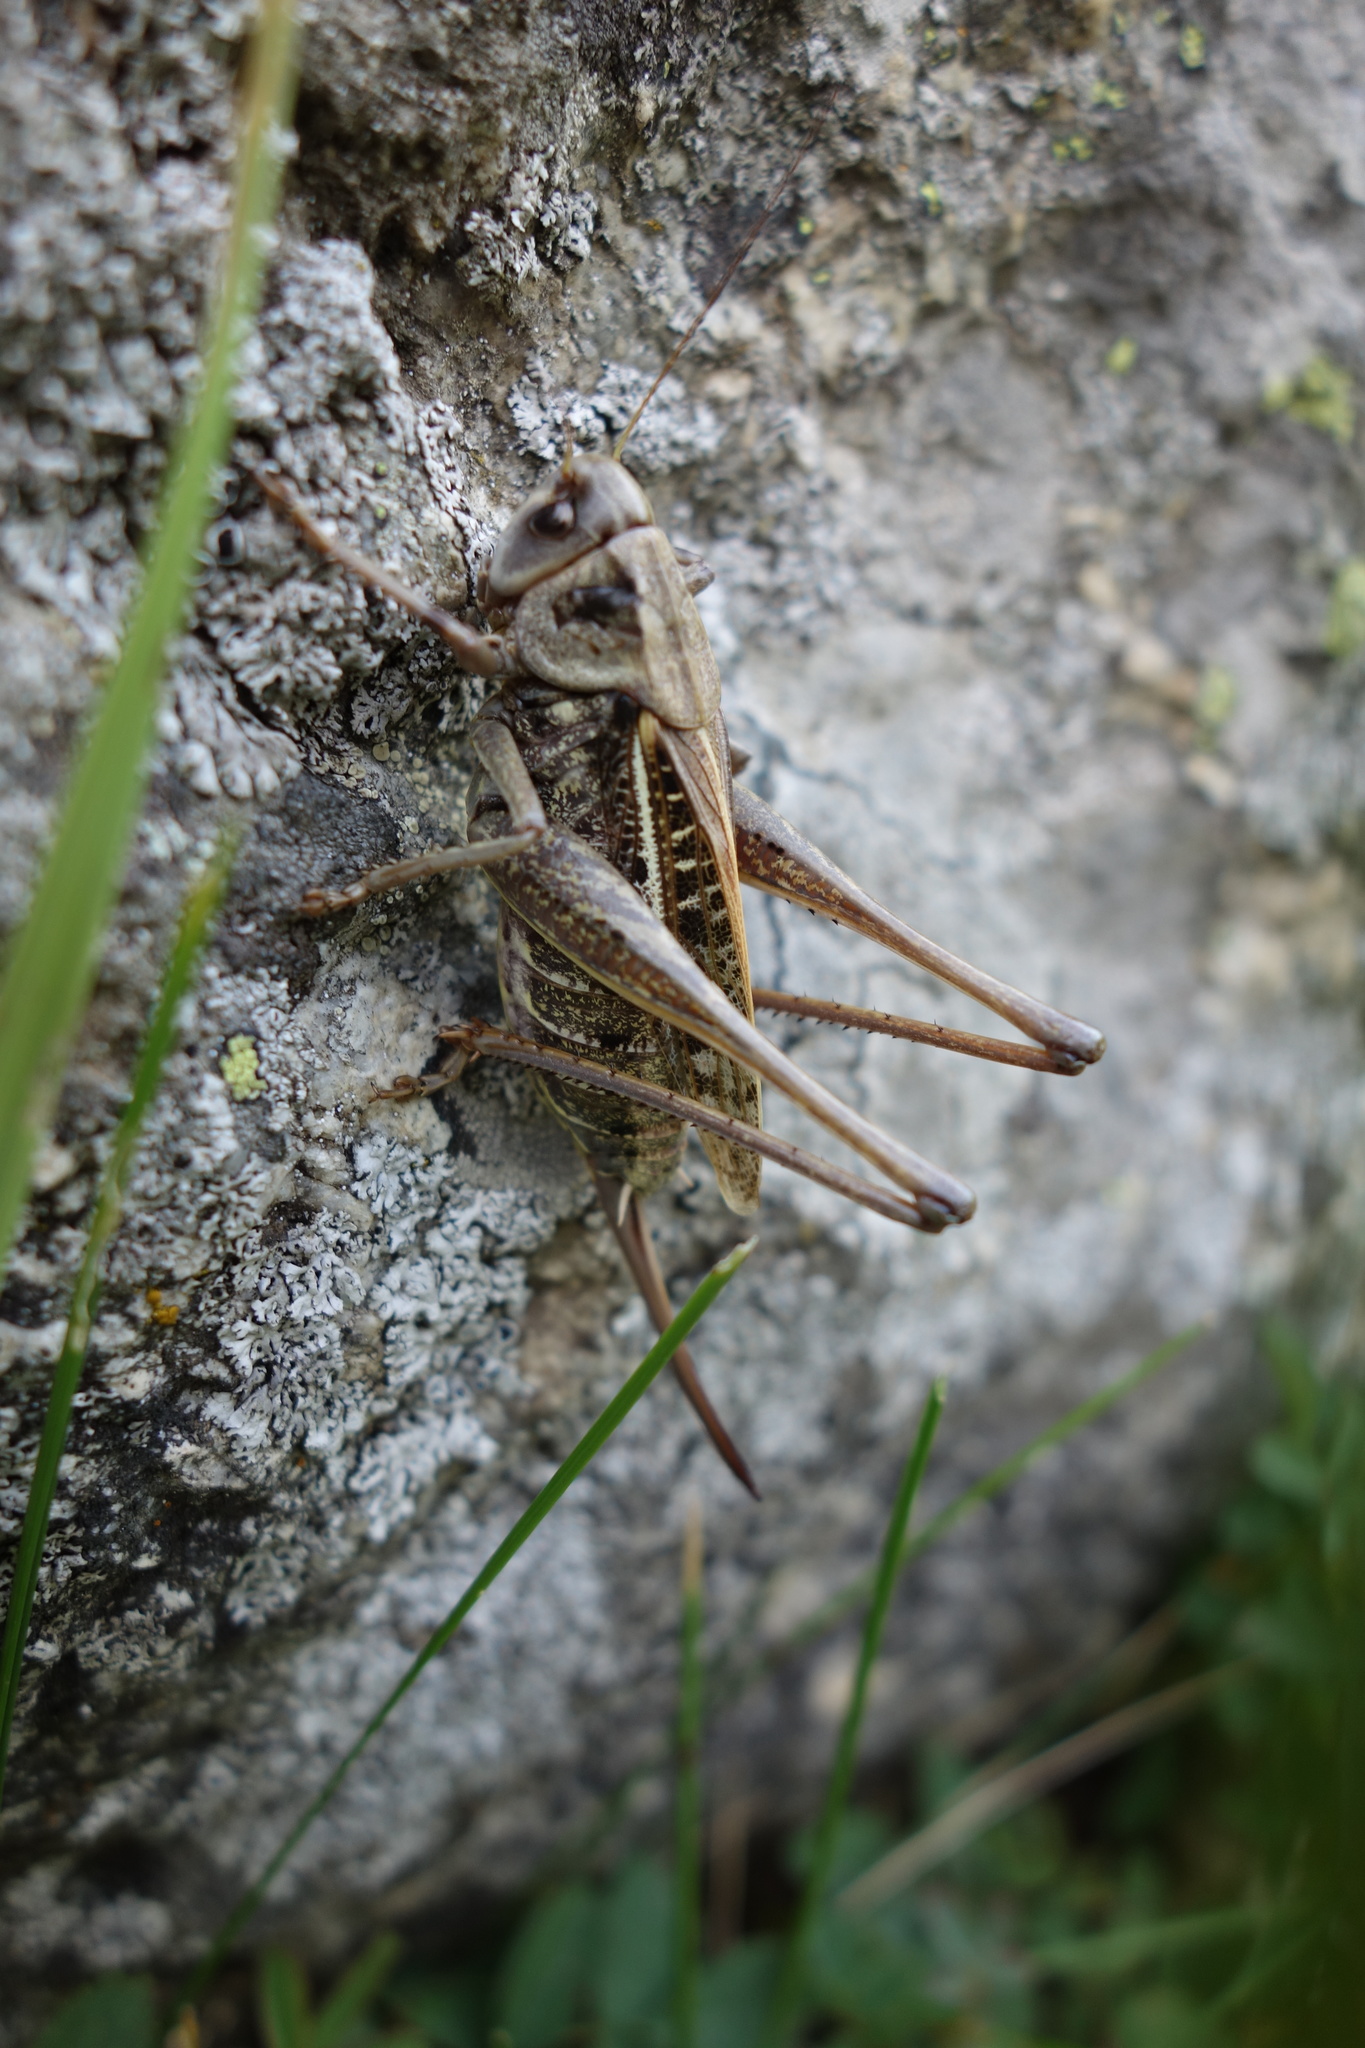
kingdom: Animalia
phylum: Arthropoda
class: Insecta
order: Orthoptera
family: Tettigoniidae
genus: Decticus
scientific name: Decticus verrucivorus
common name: Wart-biter
